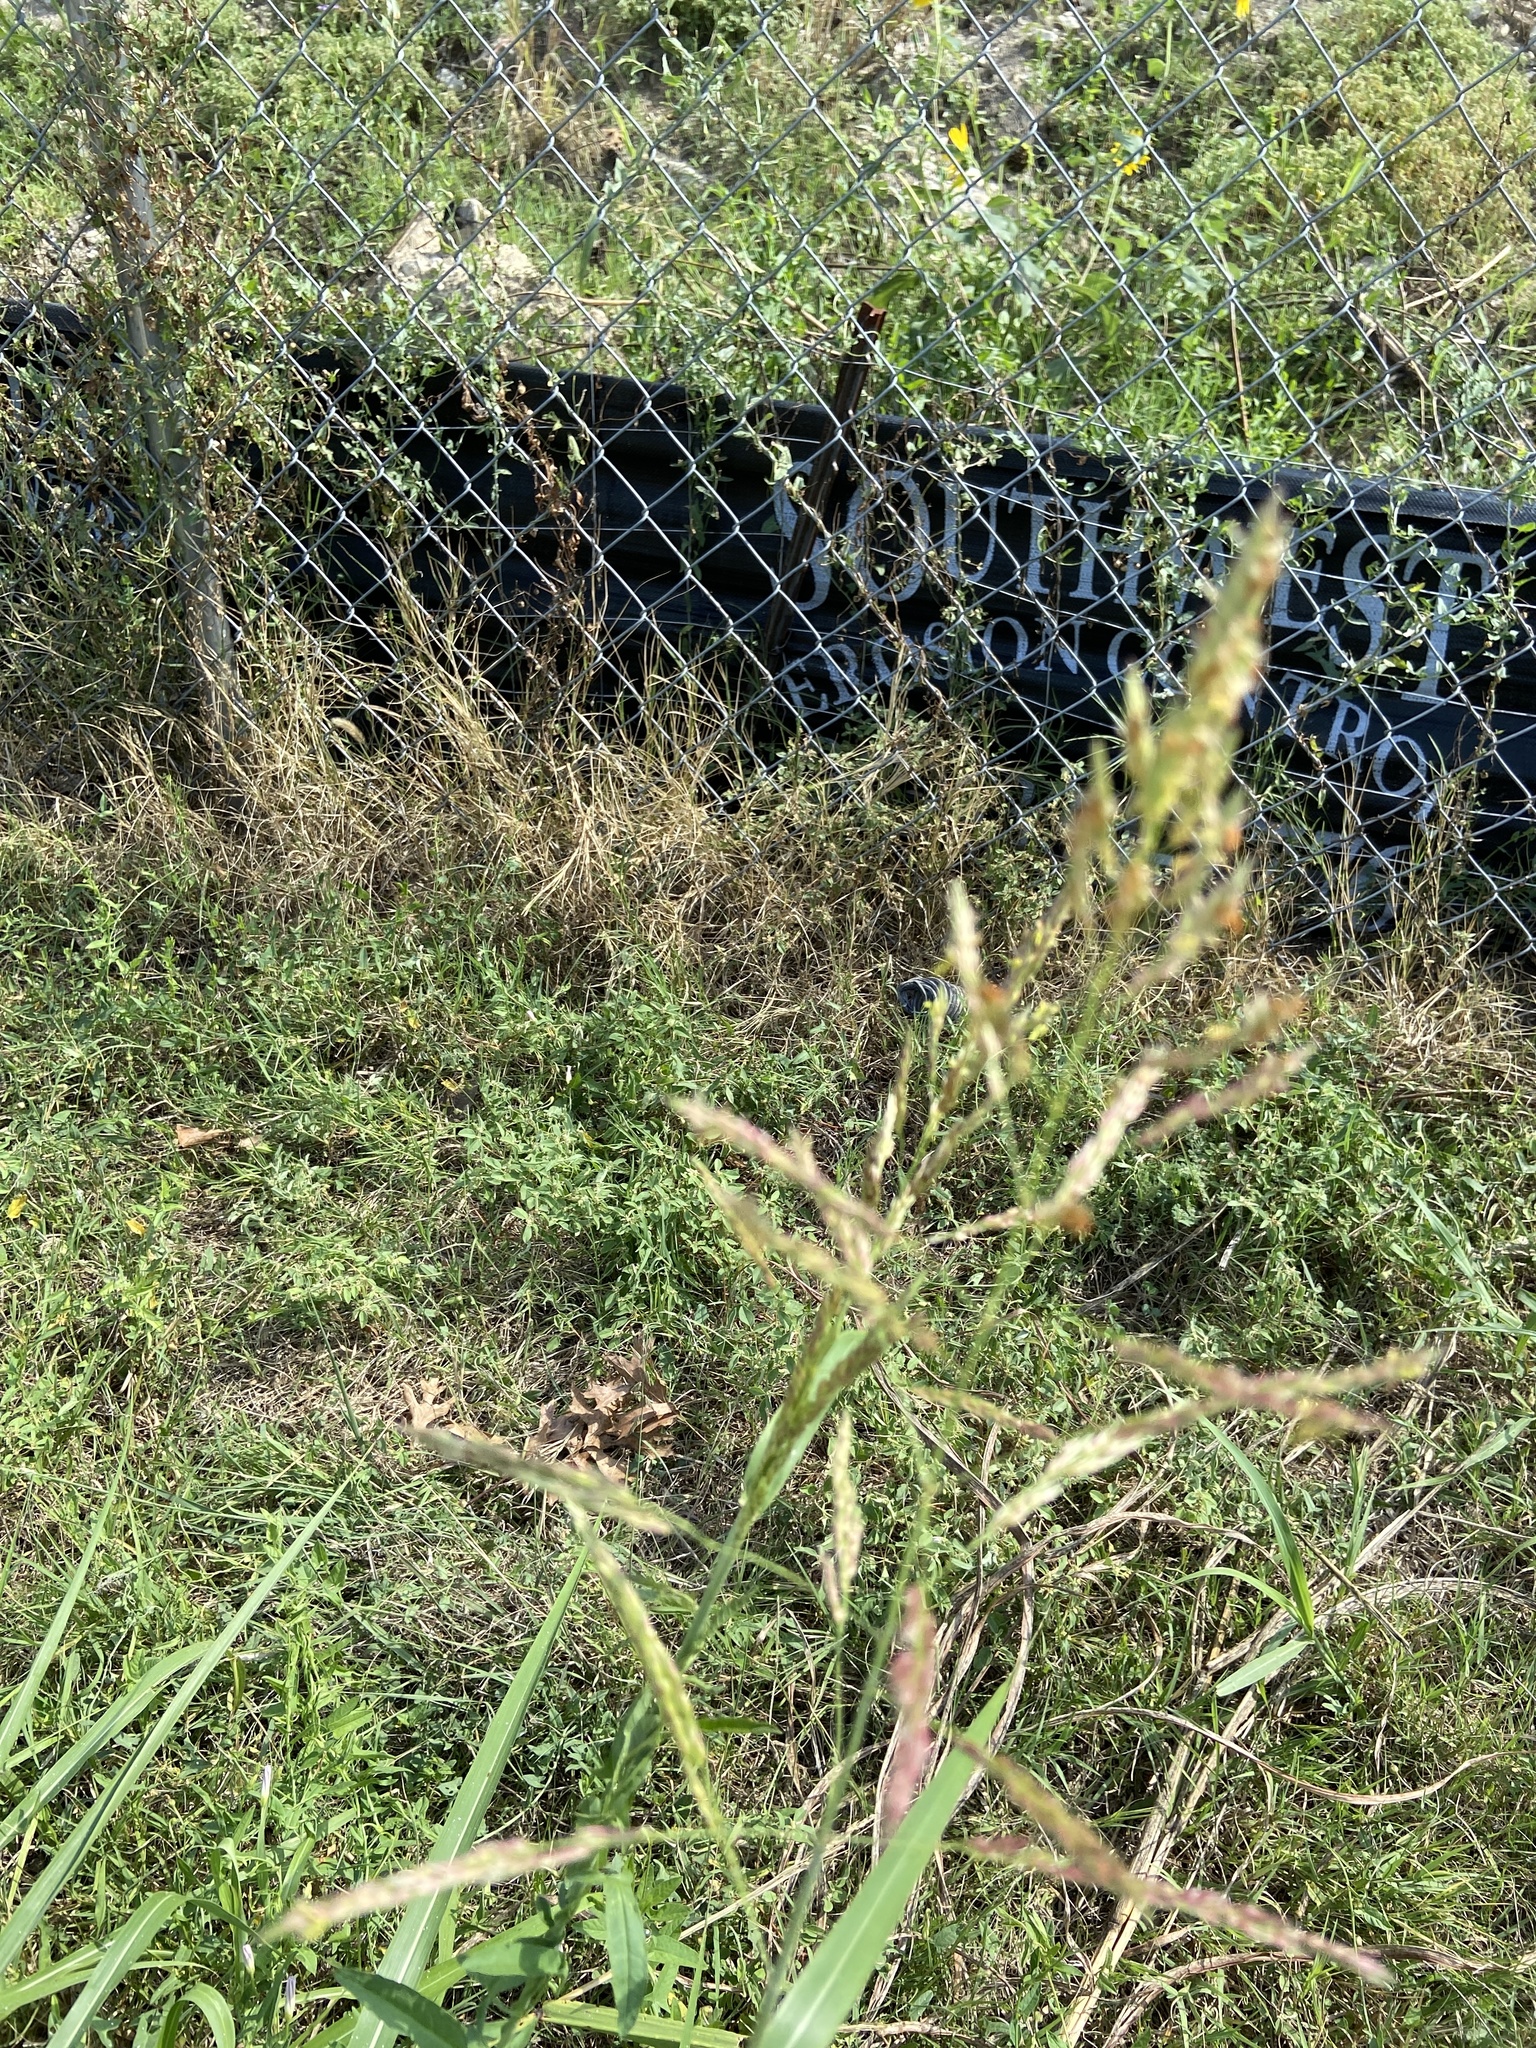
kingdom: Plantae
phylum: Tracheophyta
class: Liliopsida
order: Poales
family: Poaceae
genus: Sorghum
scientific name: Sorghum halepense
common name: Johnson-grass
